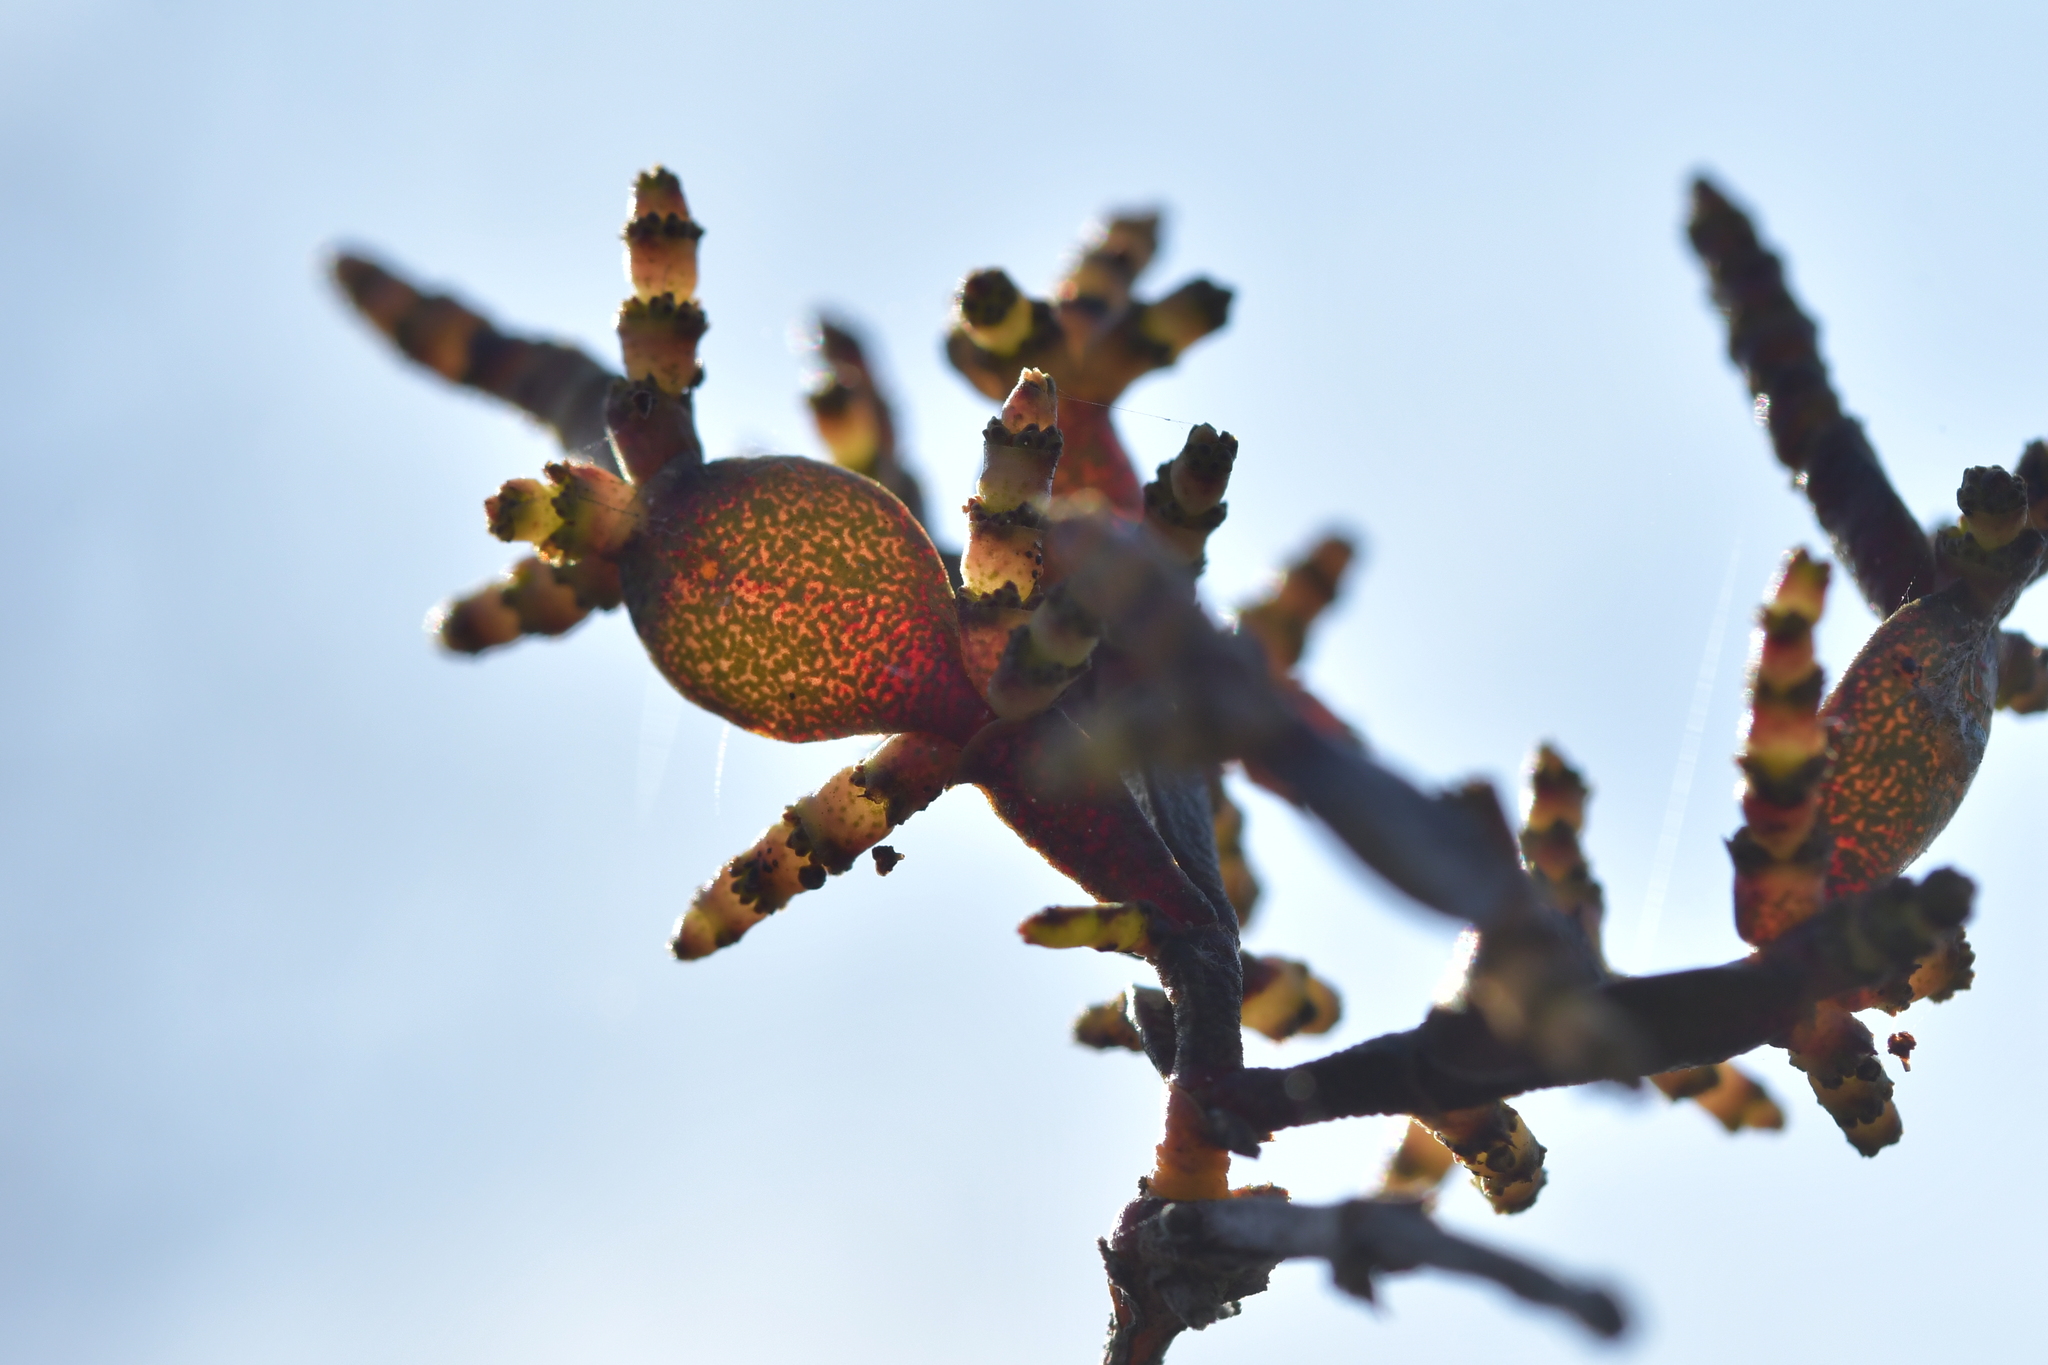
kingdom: Plantae
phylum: Tracheophyta
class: Magnoliopsida
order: Santalales
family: Viscaceae
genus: Korthalsella
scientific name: Korthalsella lindsayi
